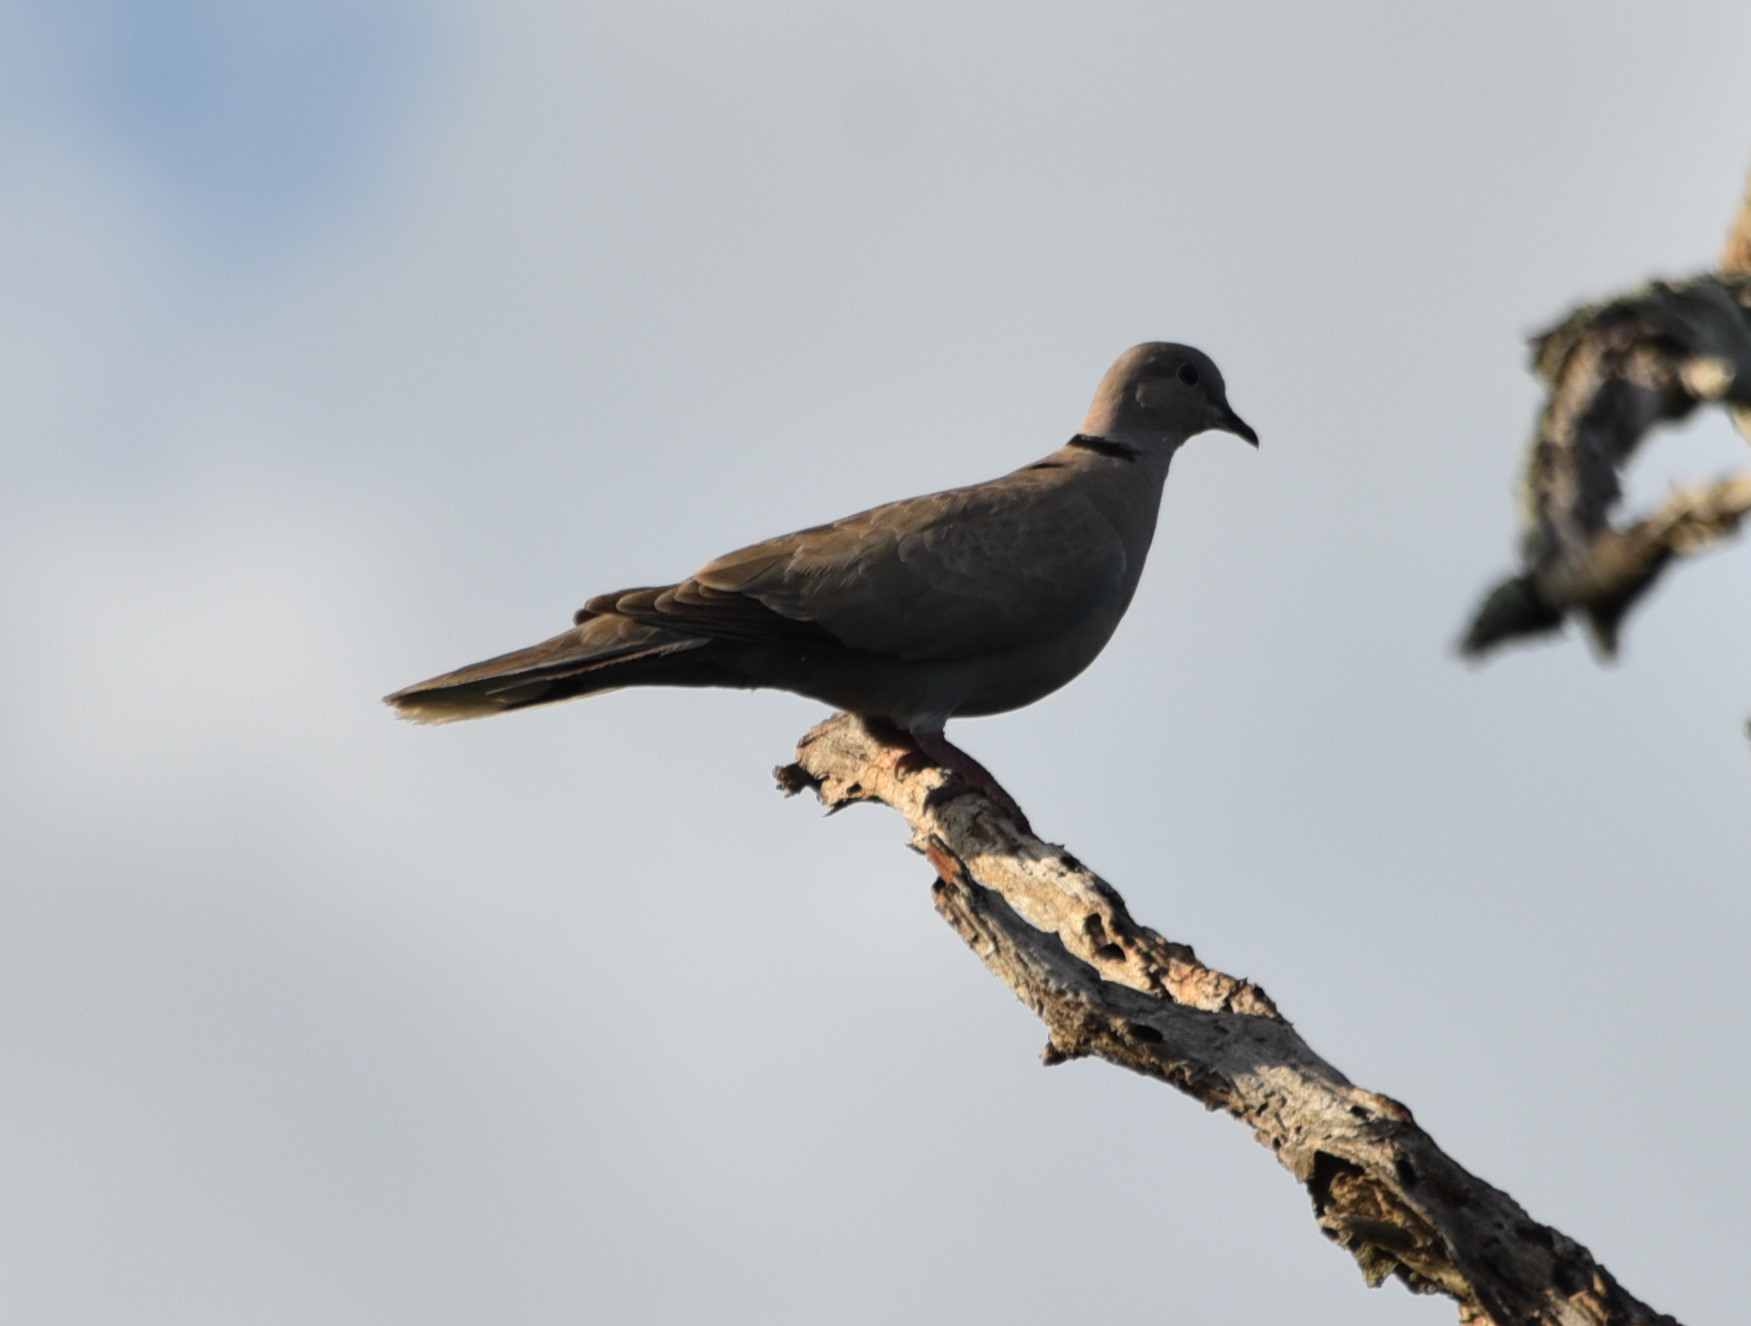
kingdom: Animalia
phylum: Chordata
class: Aves
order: Columbiformes
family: Columbidae
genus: Streptopelia
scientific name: Streptopelia decaocto
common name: Eurasian collared dove
